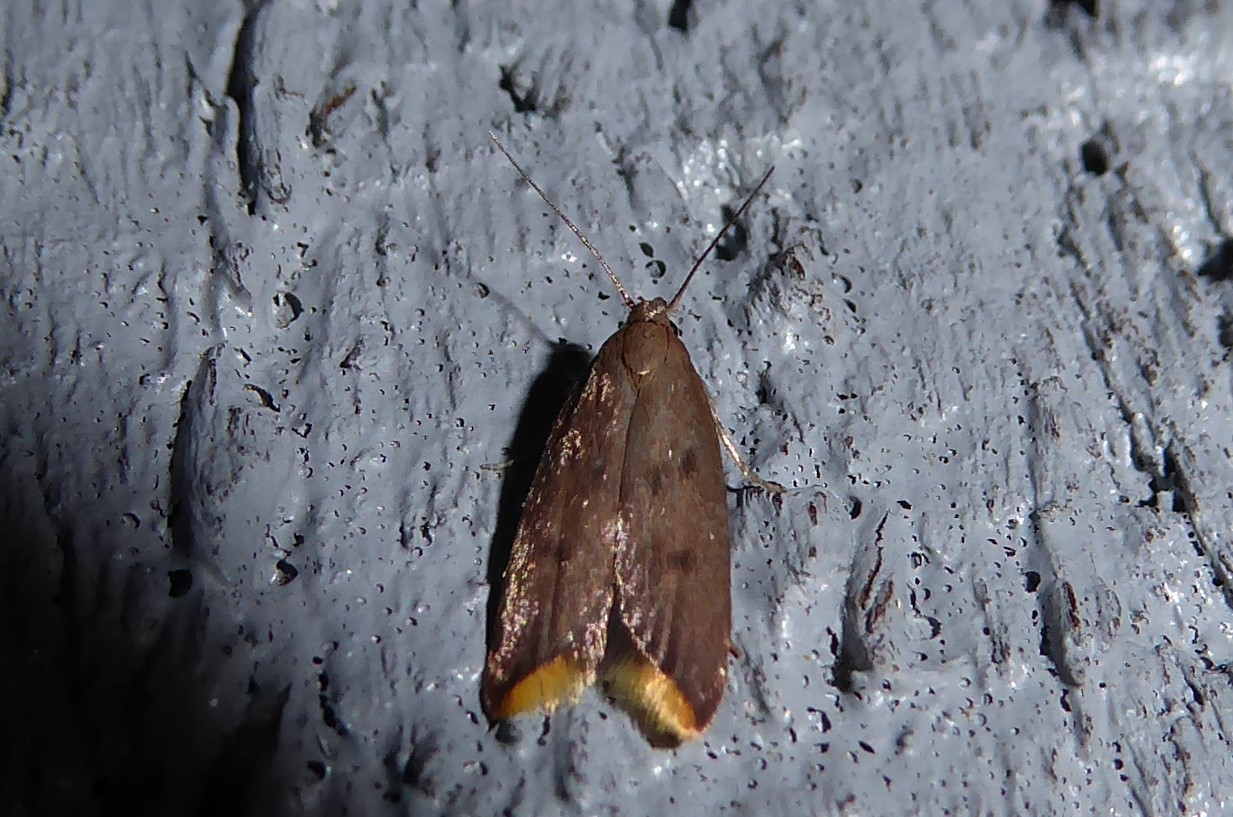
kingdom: Animalia
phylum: Arthropoda
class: Insecta
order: Lepidoptera
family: Oecophoridae
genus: Tachystola
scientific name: Tachystola acroxantha
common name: Ruddy streak
